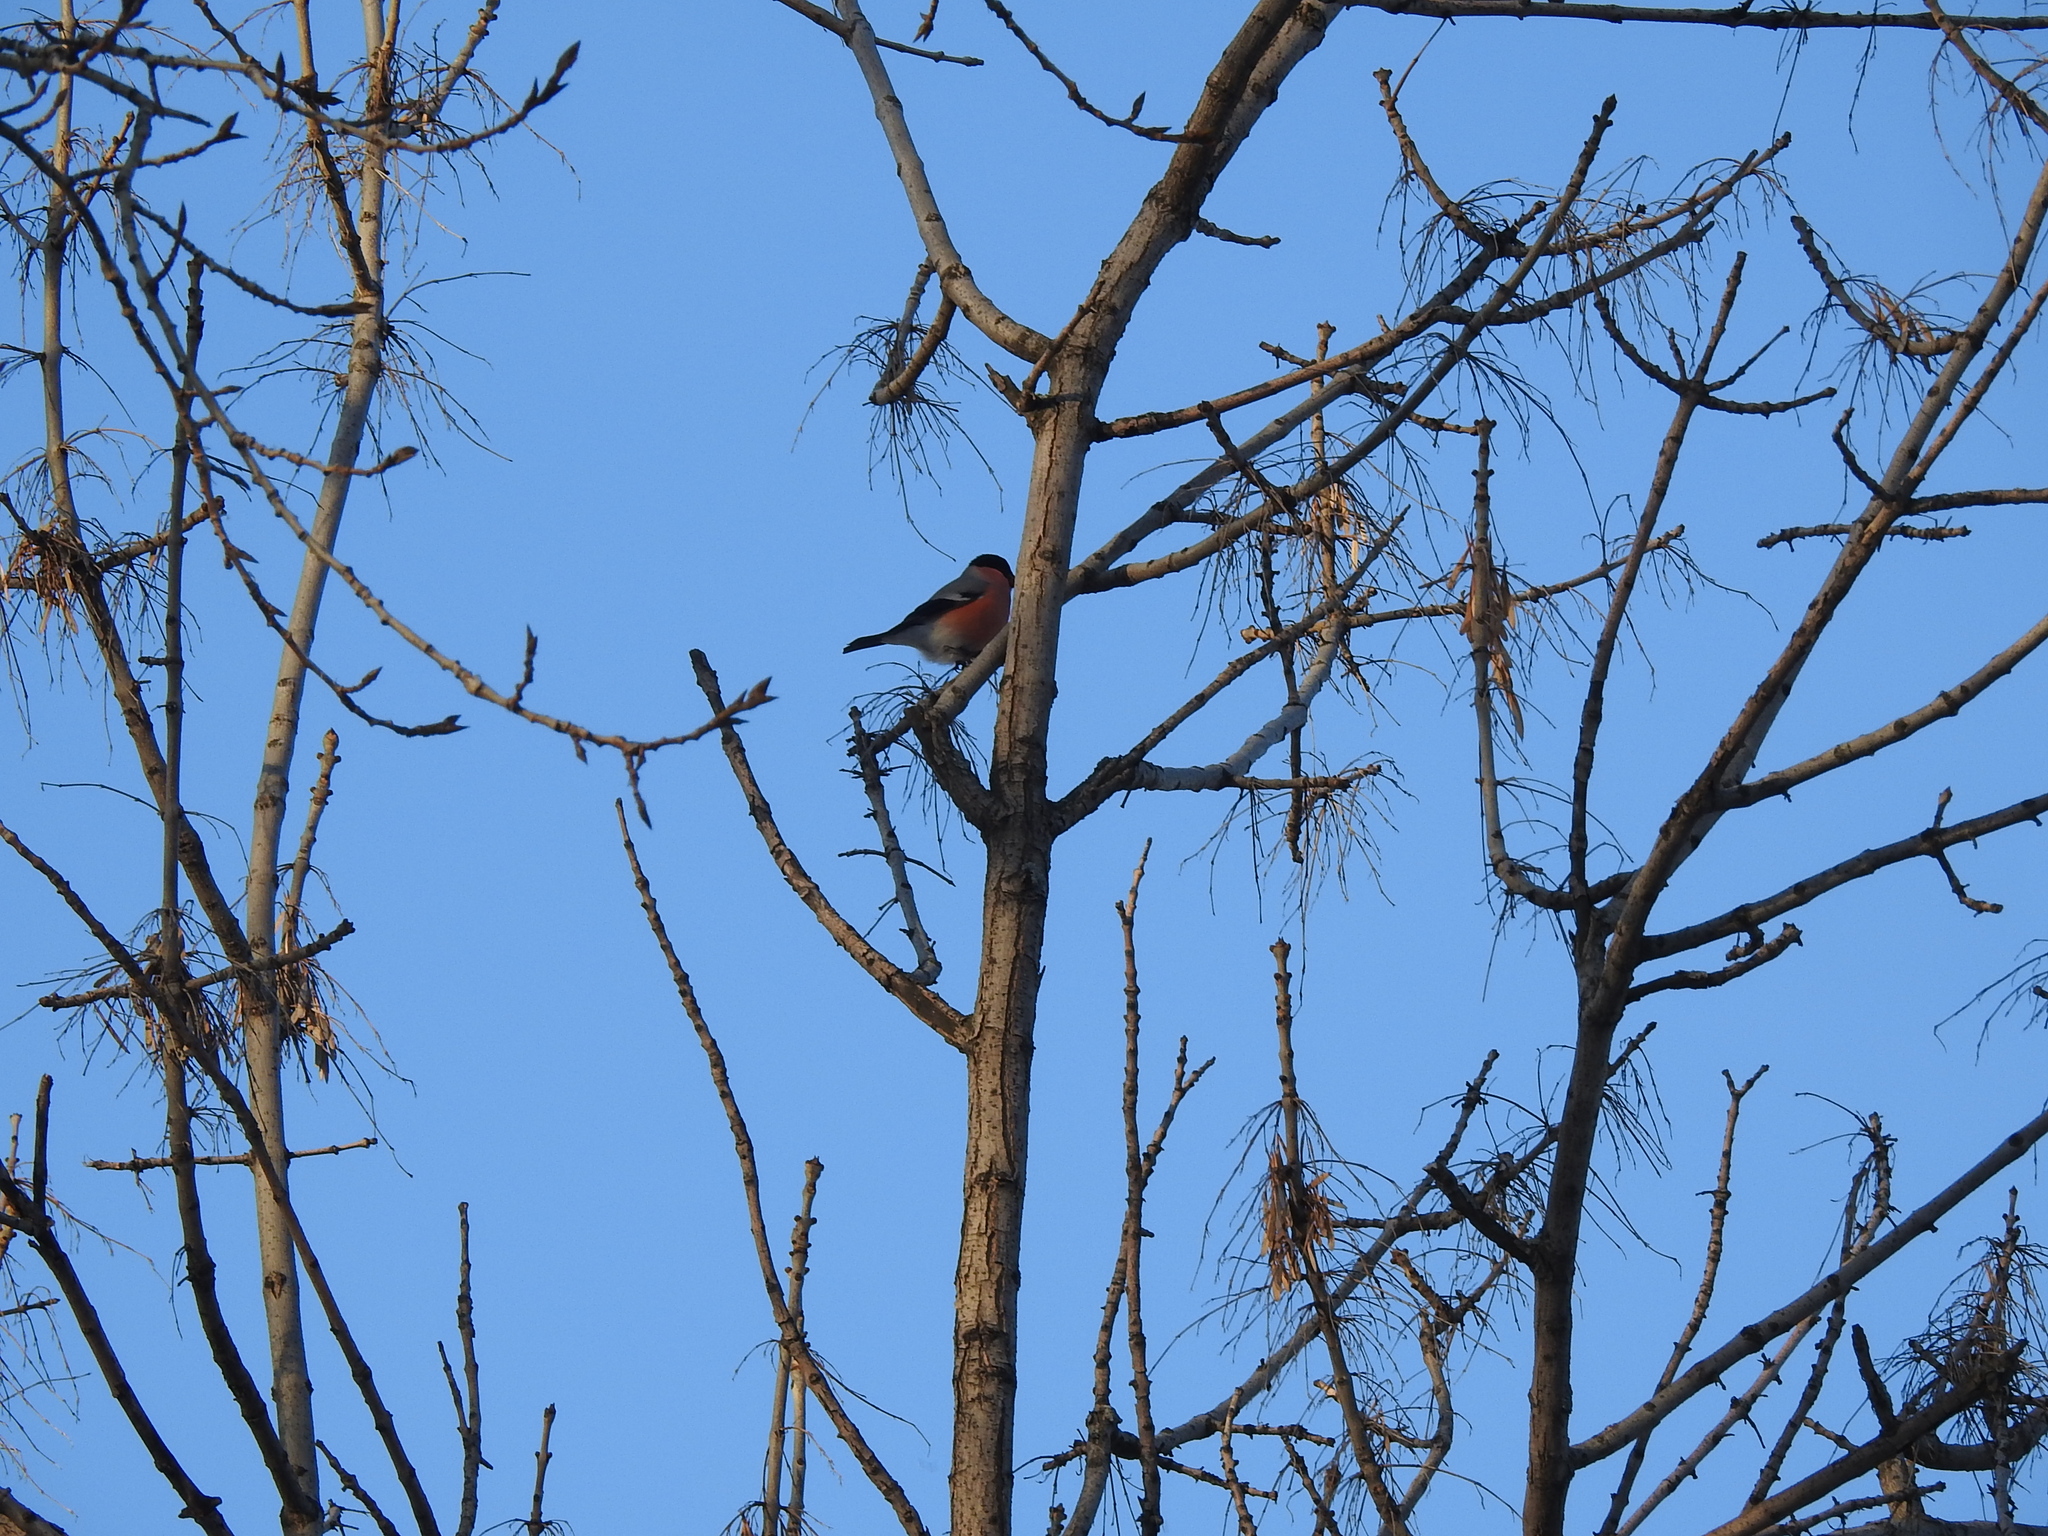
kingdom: Animalia
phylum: Chordata
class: Aves
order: Passeriformes
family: Fringillidae
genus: Pyrrhula
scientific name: Pyrrhula pyrrhula
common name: Eurasian bullfinch
